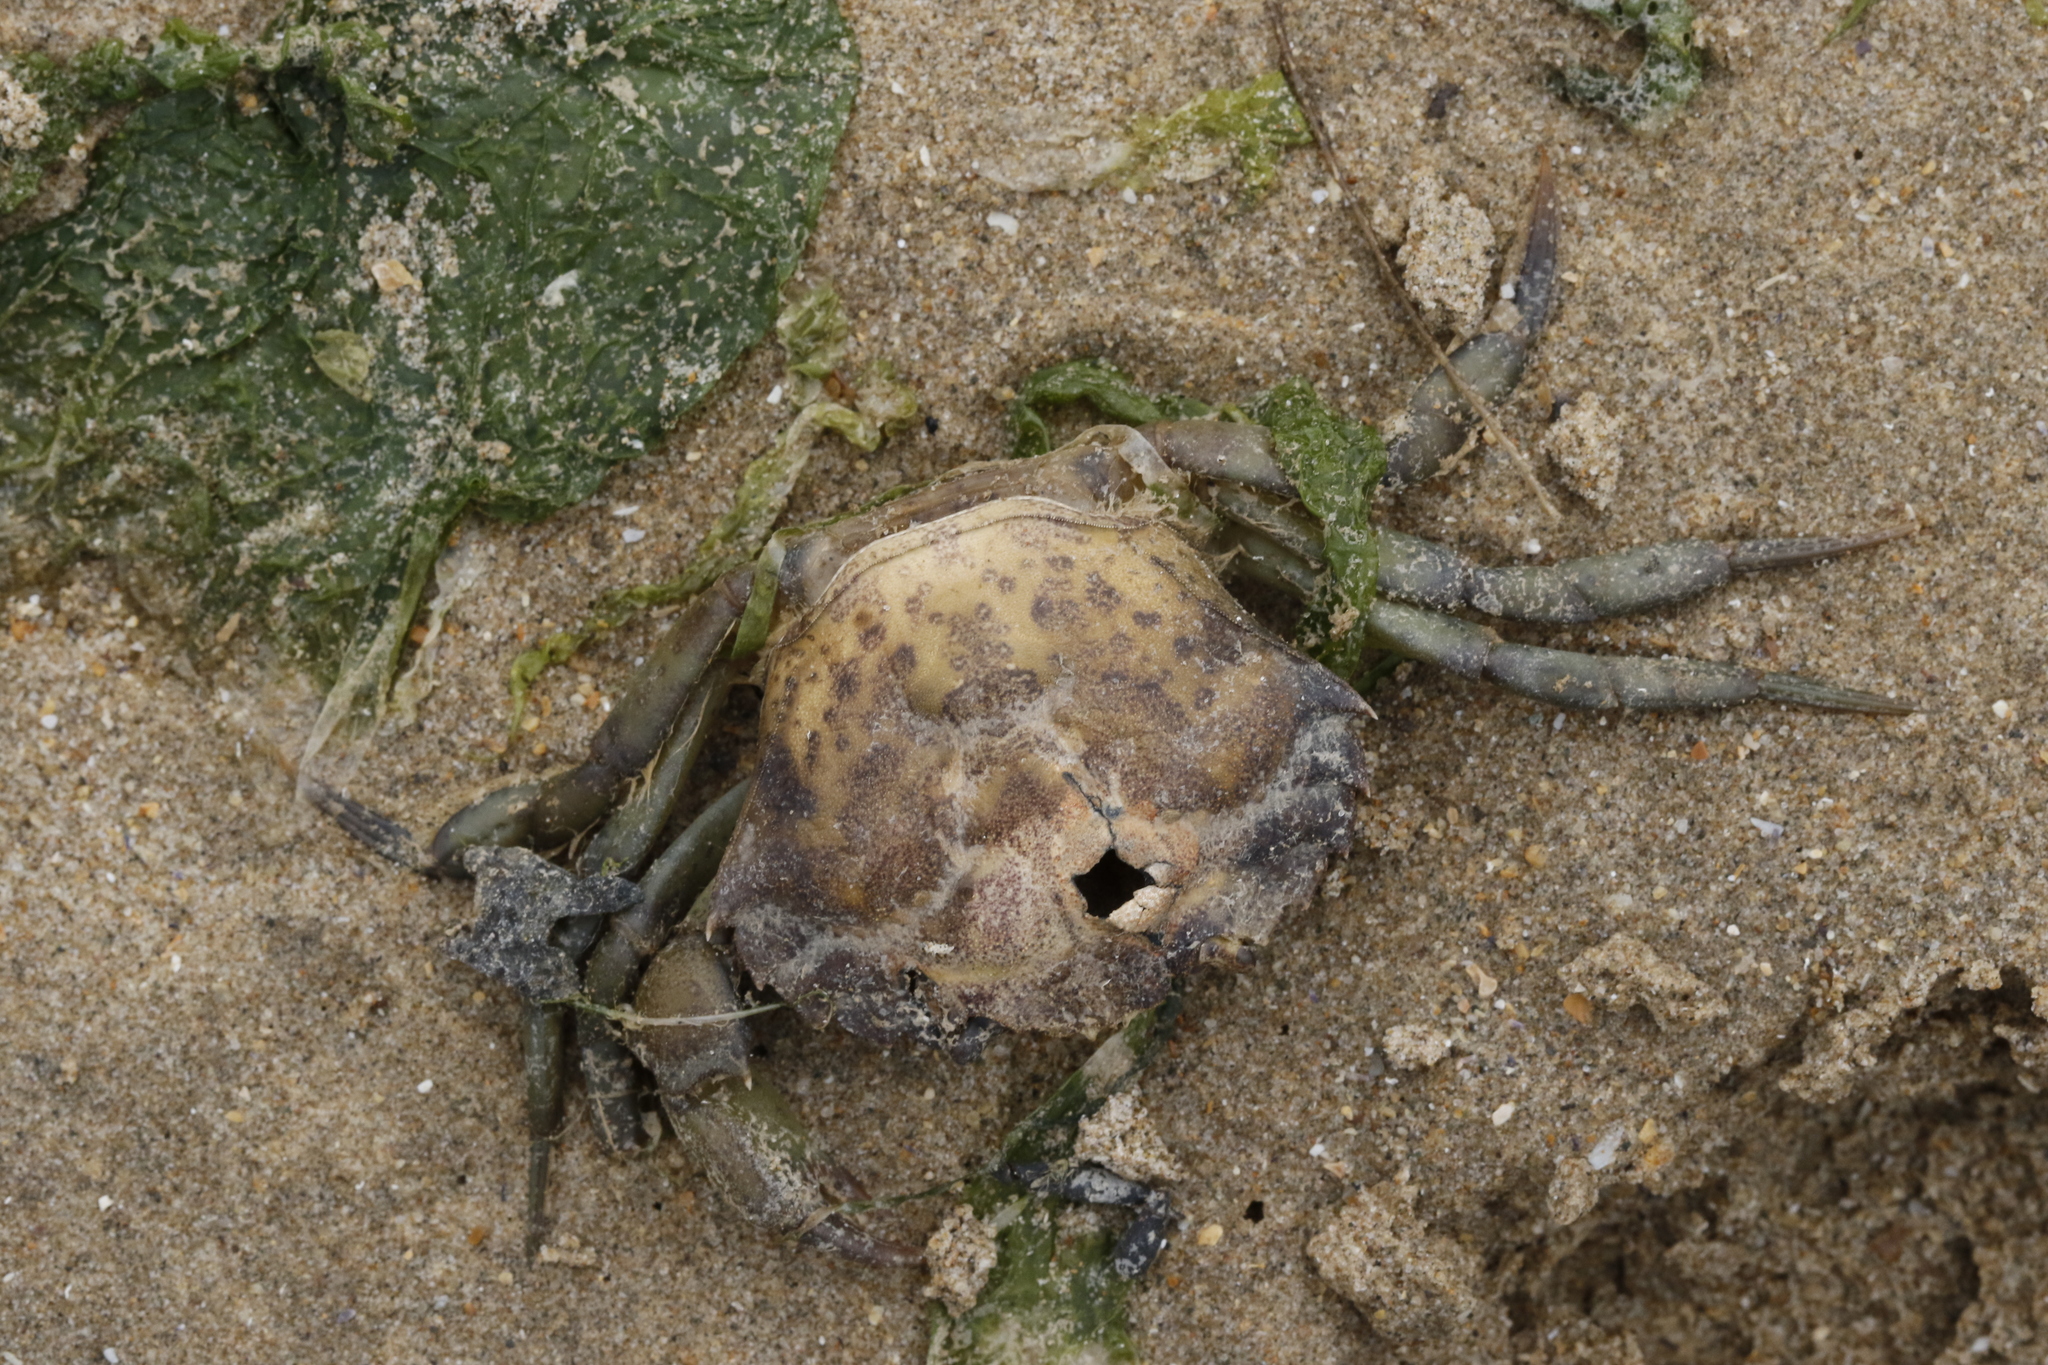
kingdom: Animalia
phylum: Arthropoda
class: Malacostraca
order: Decapoda
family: Carcinidae
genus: Carcinus
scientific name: Carcinus maenas
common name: European green crab
